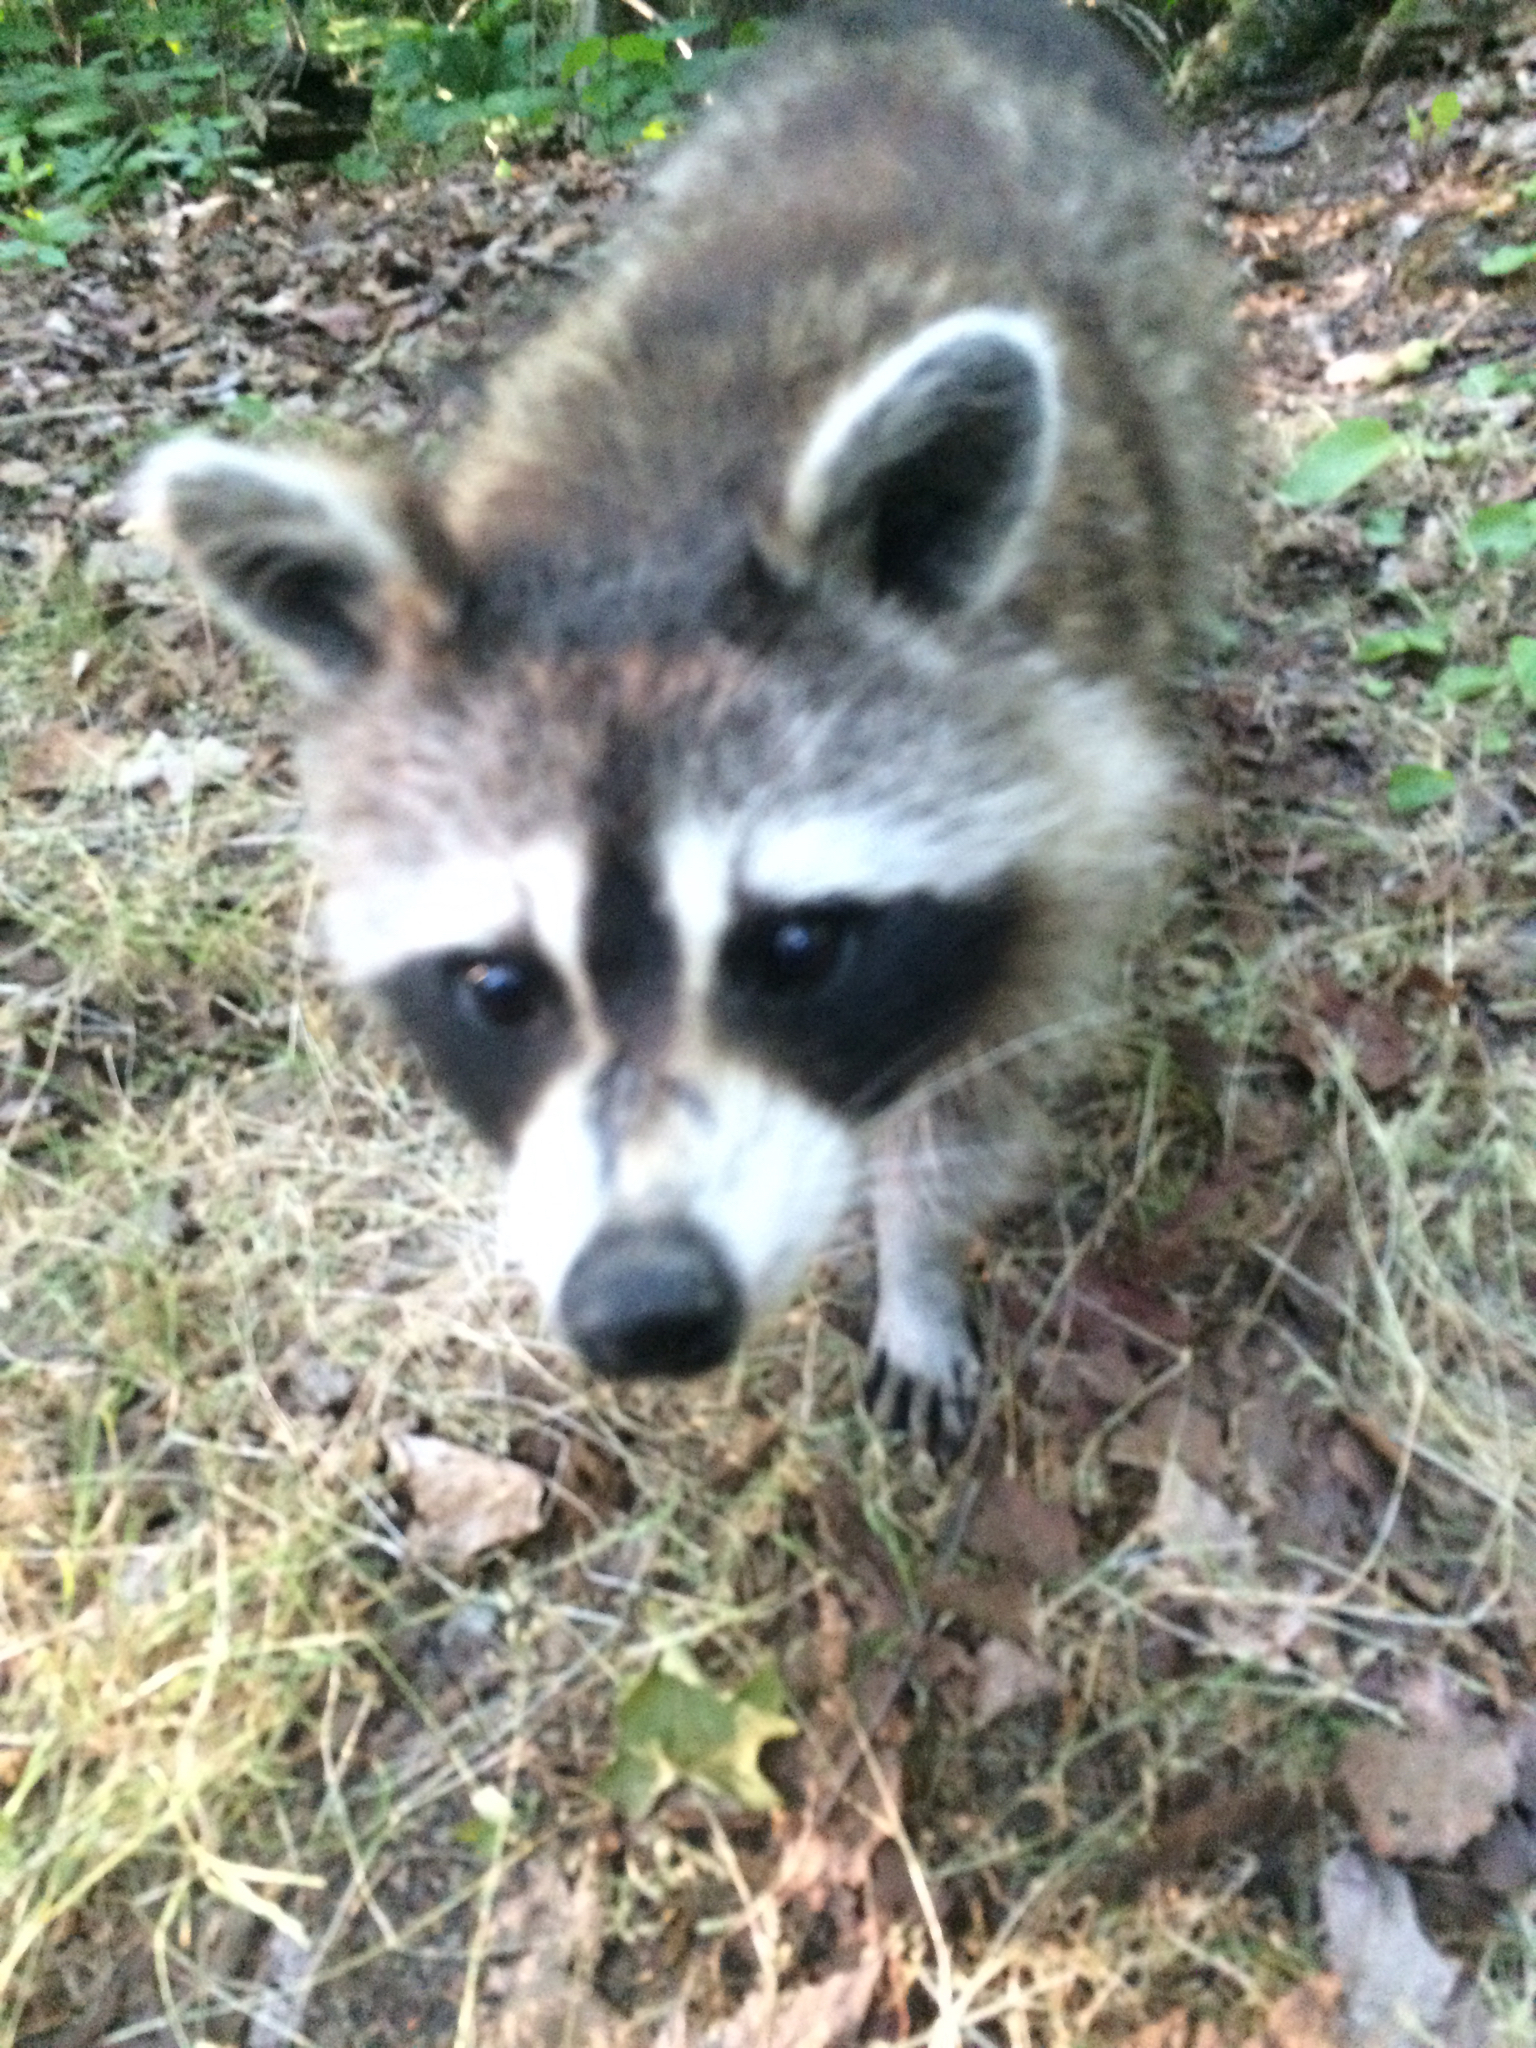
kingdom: Animalia
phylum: Chordata
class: Mammalia
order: Carnivora
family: Procyonidae
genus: Procyon
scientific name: Procyon lotor
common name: Raccoon
